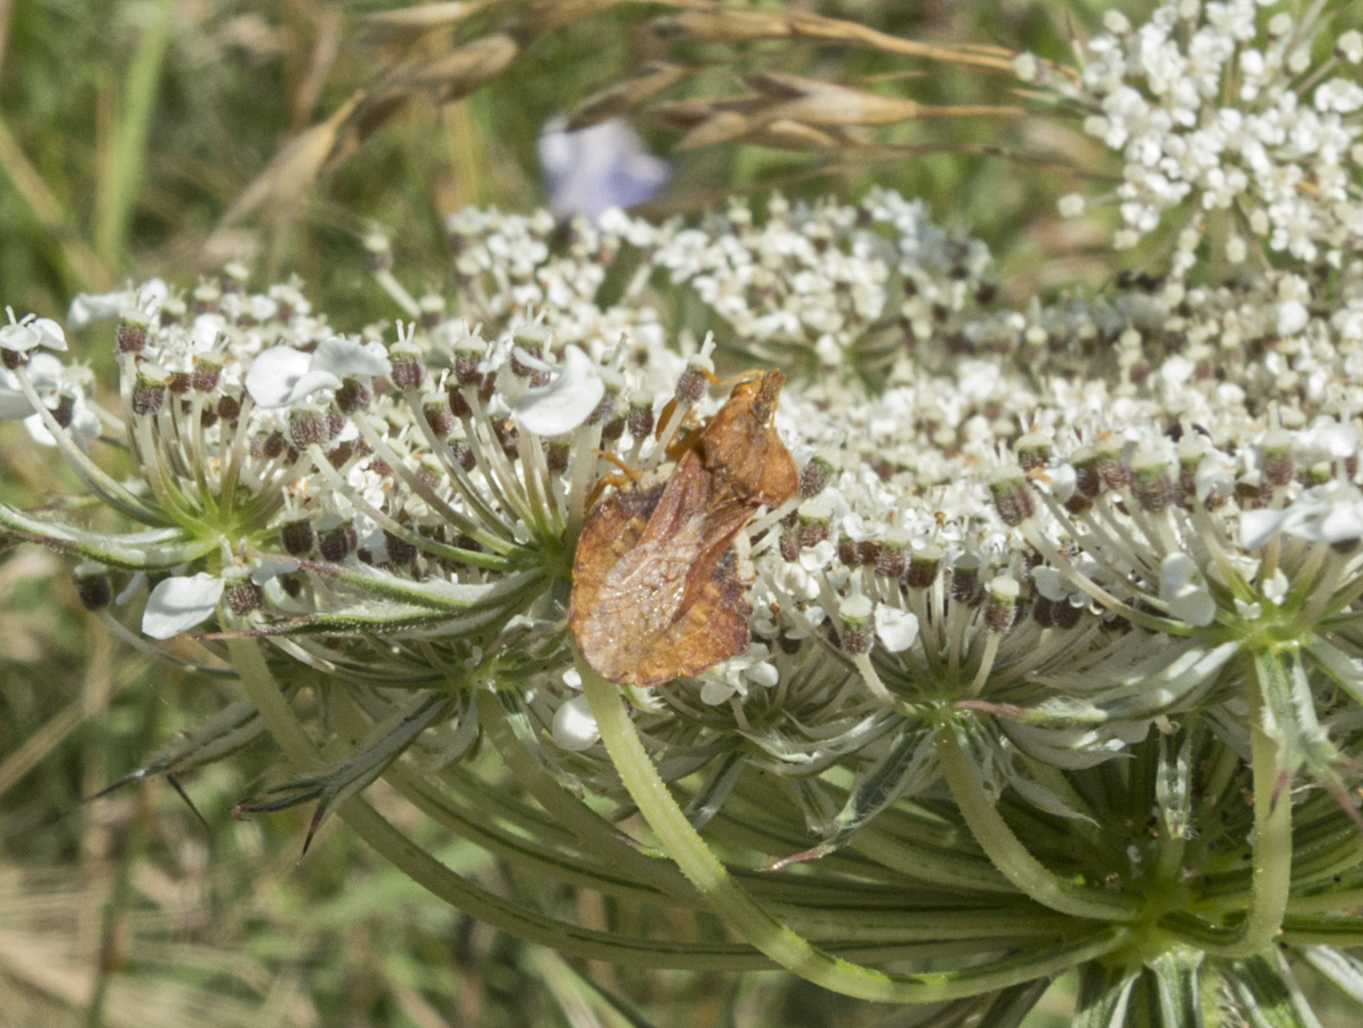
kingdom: Animalia
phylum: Arthropoda
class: Insecta
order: Hemiptera
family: Reduviidae
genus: Phymata
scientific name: Phymata crassipes
